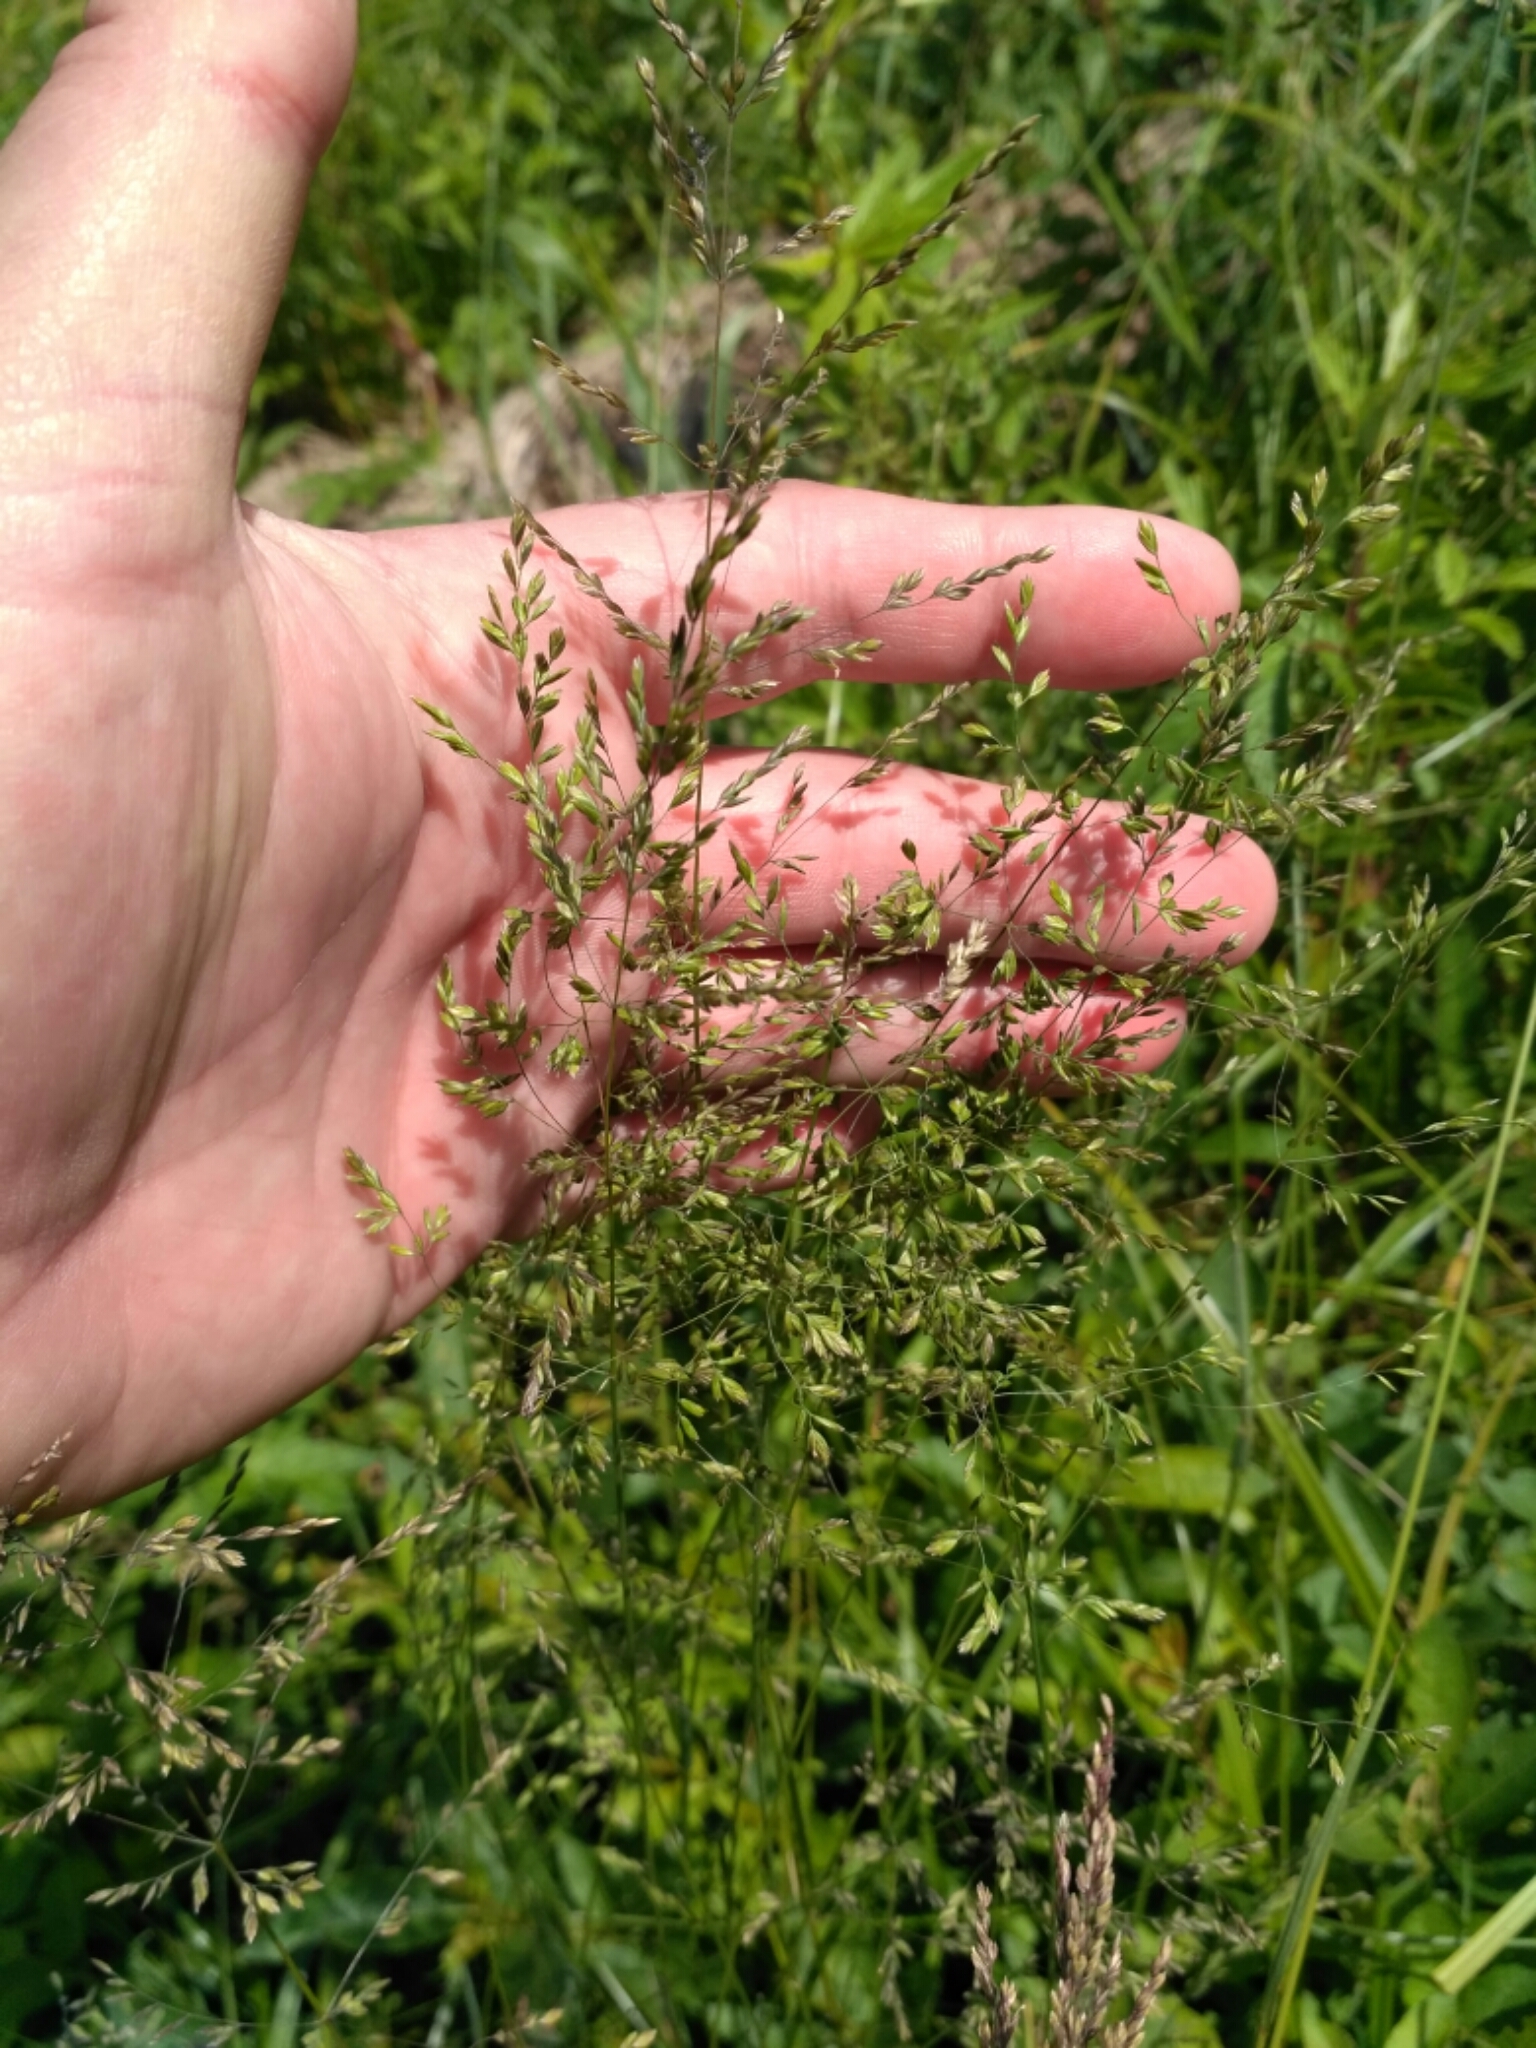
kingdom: Plantae
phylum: Tracheophyta
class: Liliopsida
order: Poales
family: Poaceae
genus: Poa
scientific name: Poa trivialis
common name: Rough bluegrass
